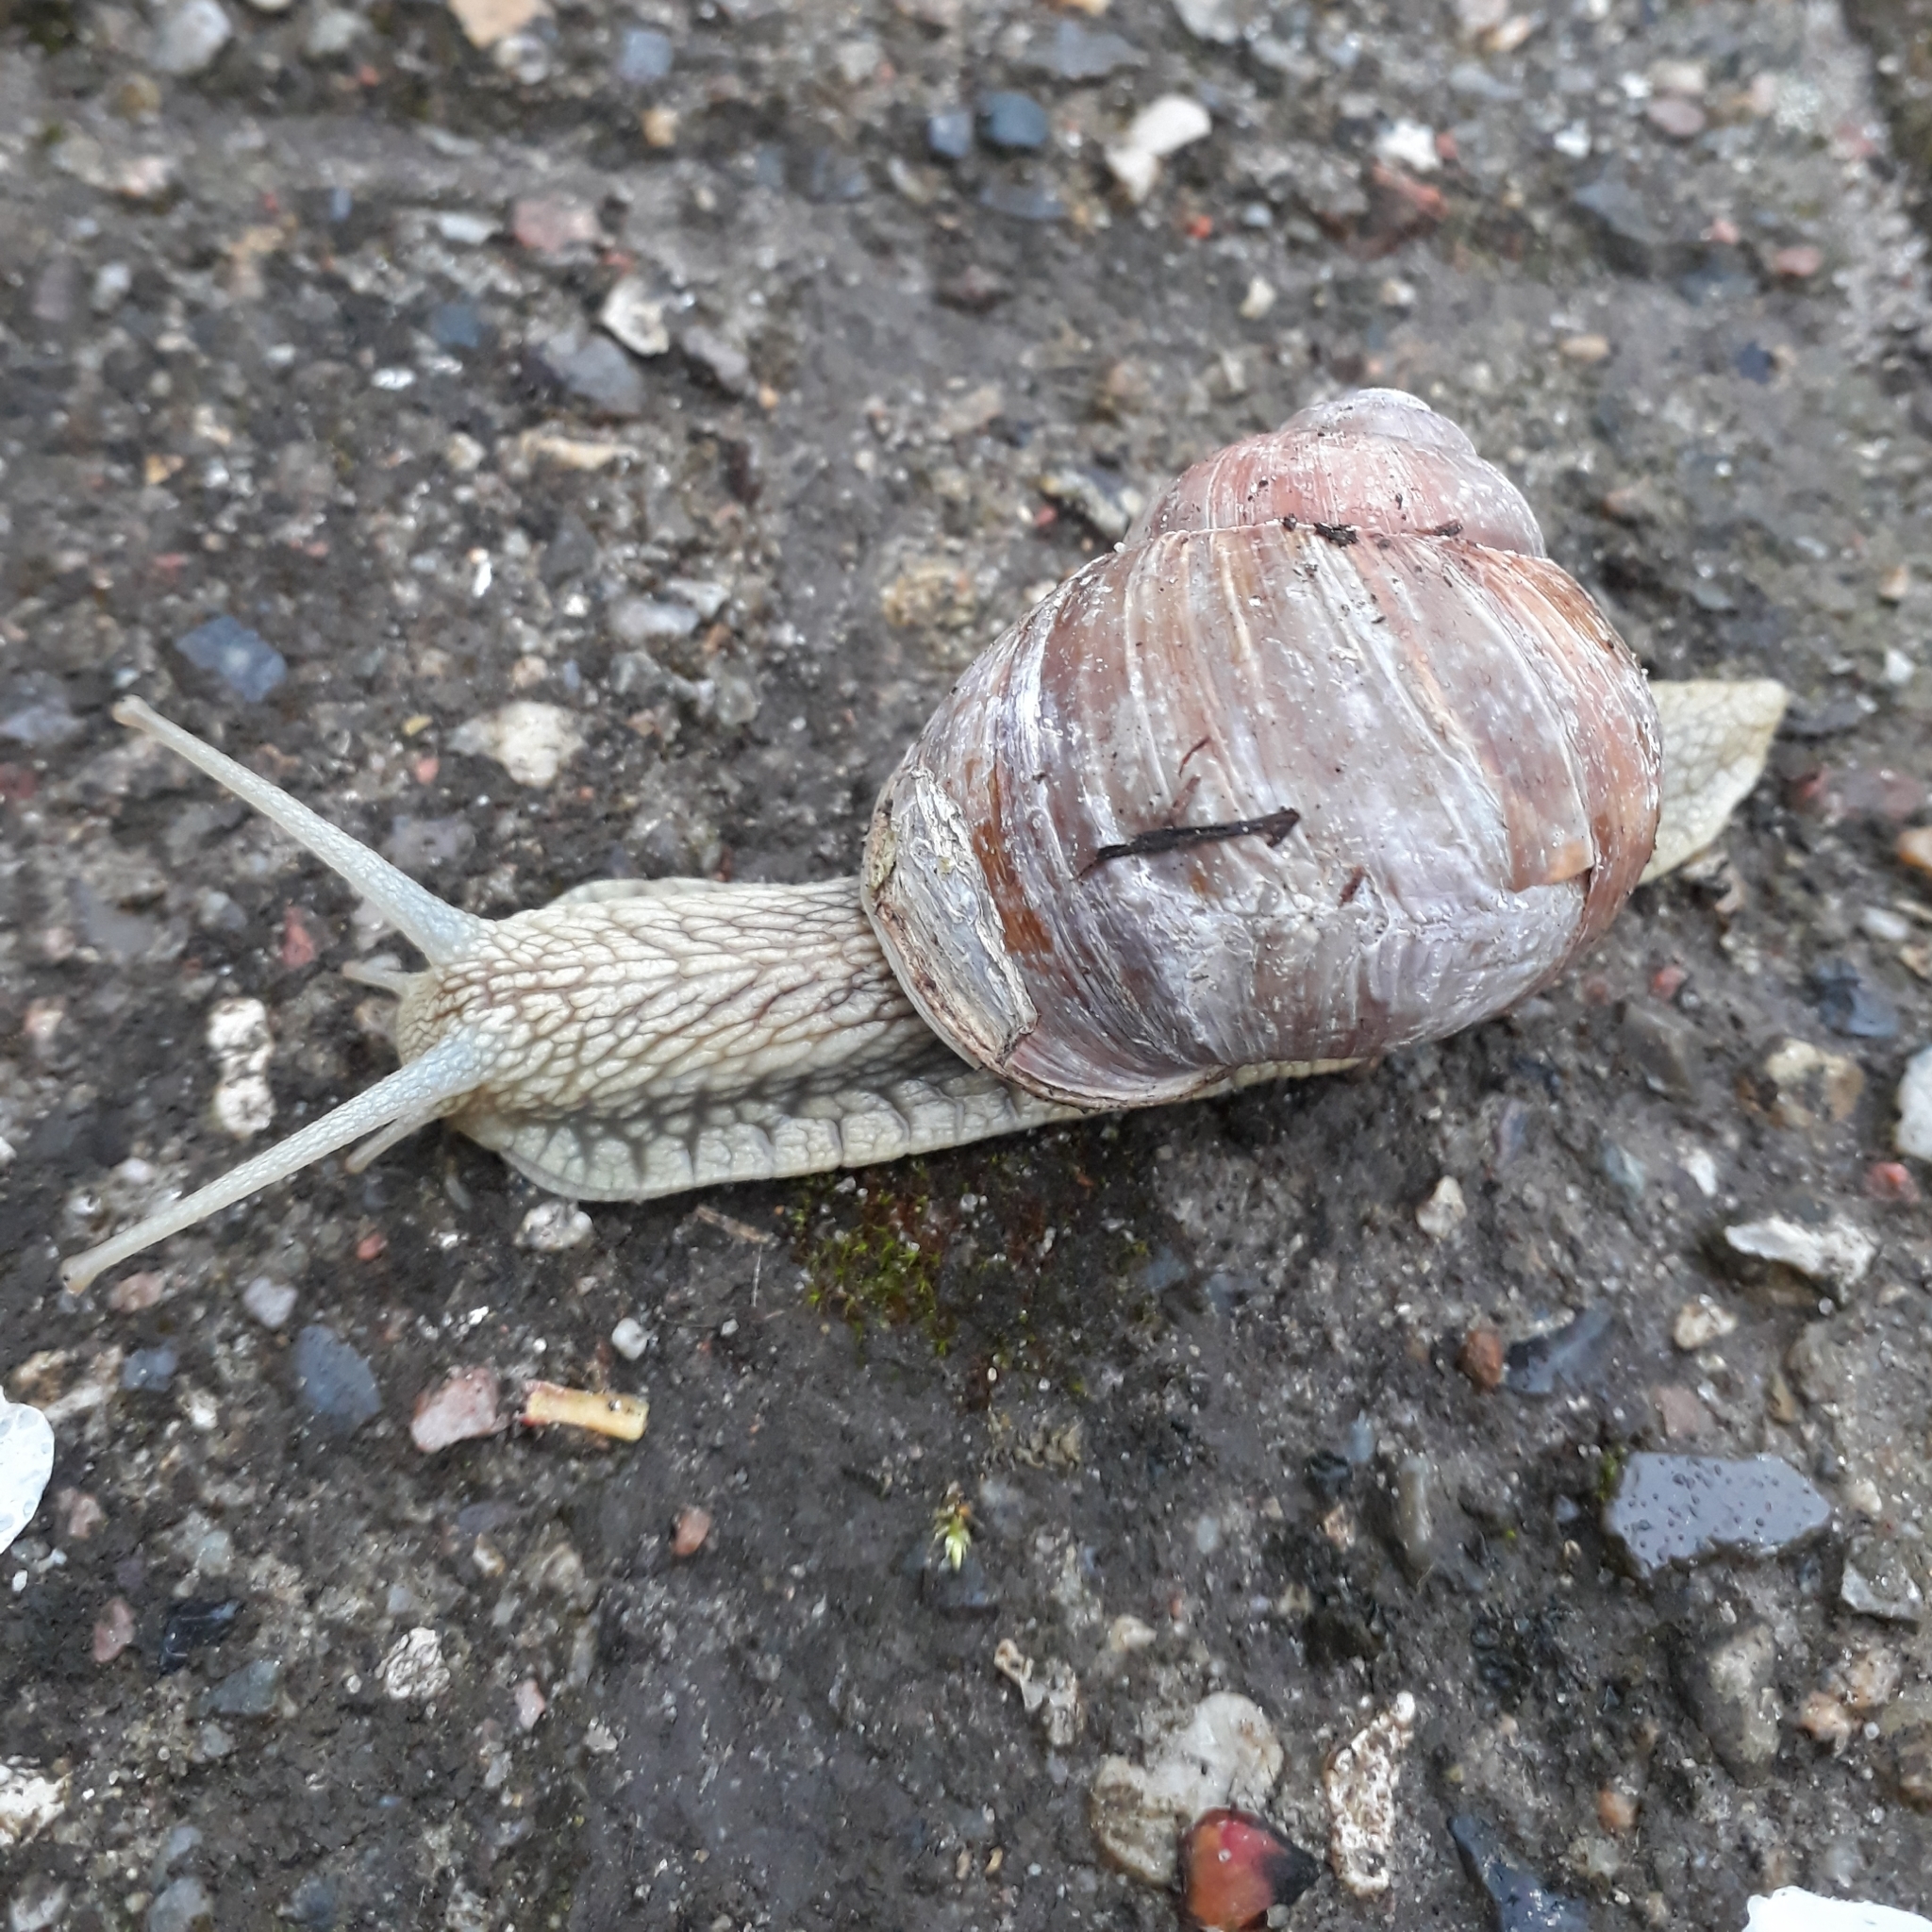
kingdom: Animalia
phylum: Mollusca
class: Gastropoda
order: Stylommatophora
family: Helicidae
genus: Helix
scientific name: Helix pomatia
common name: Roman snail
